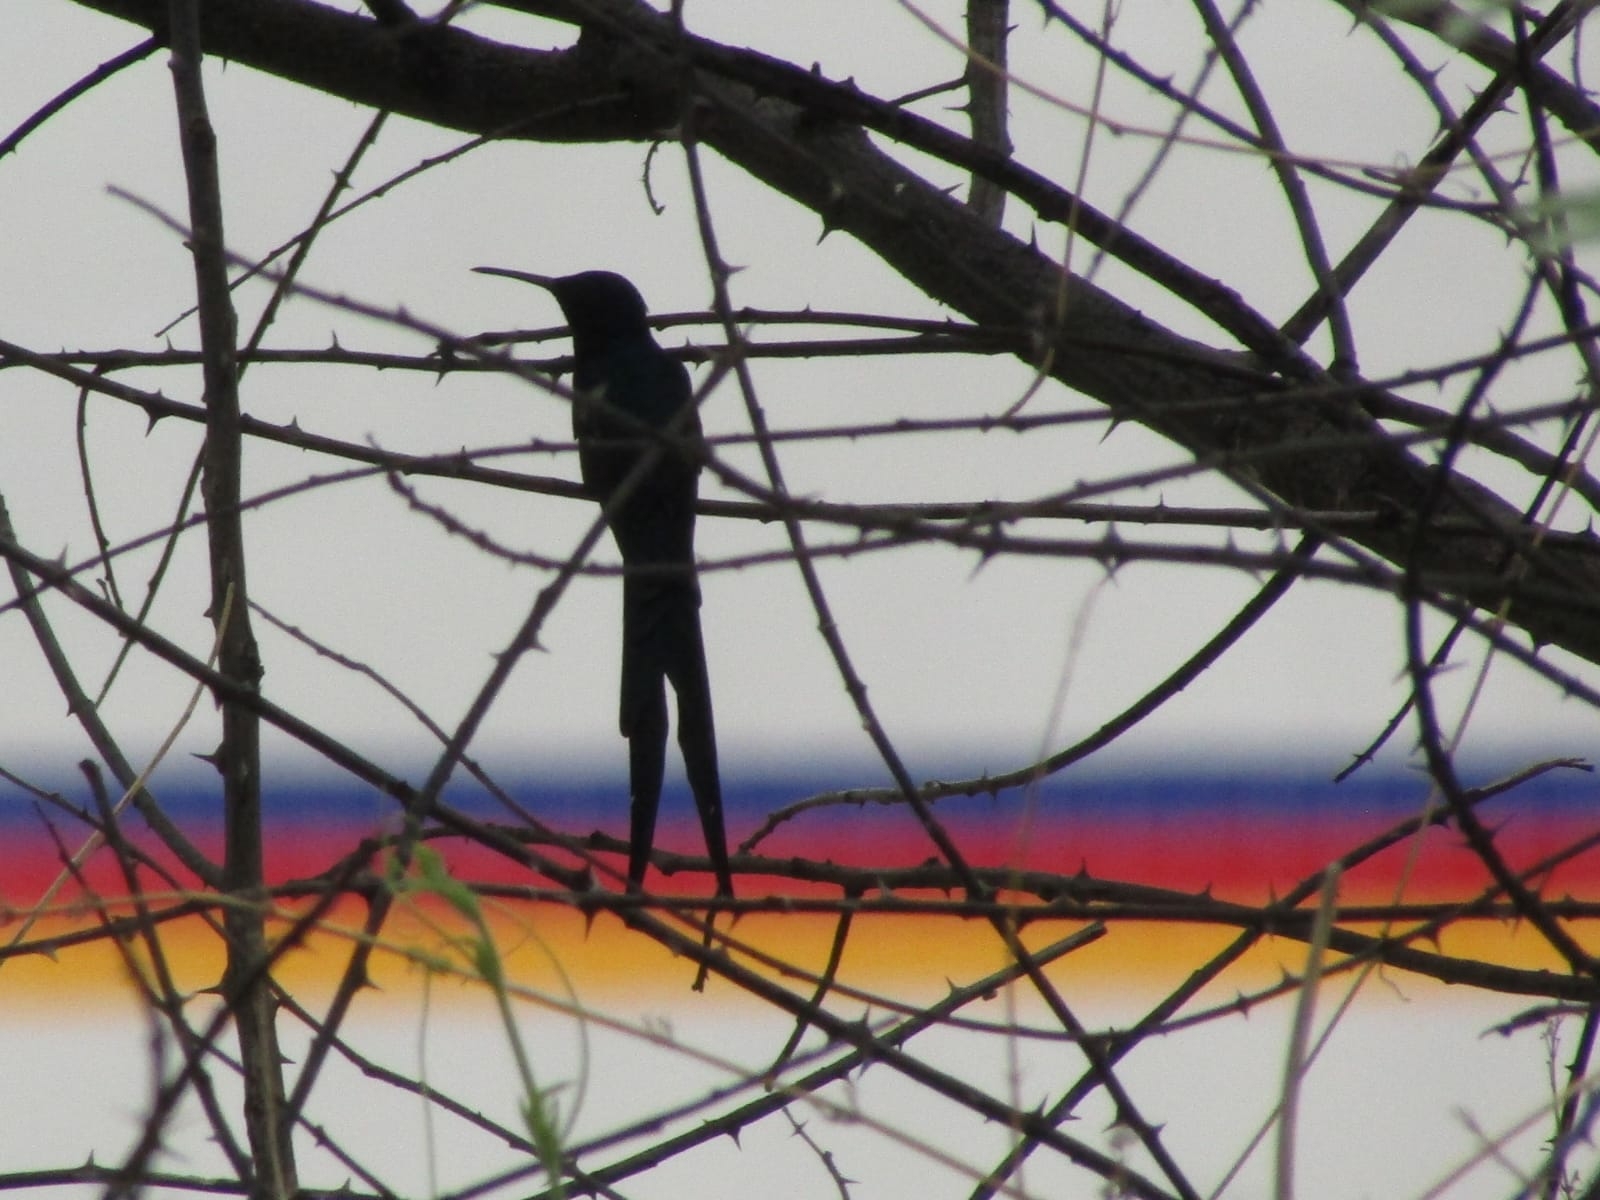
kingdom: Animalia
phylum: Chordata
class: Aves
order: Apodiformes
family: Trochilidae
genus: Eupetomena
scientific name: Eupetomena macroura
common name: Swallow-tailed hummingbird
